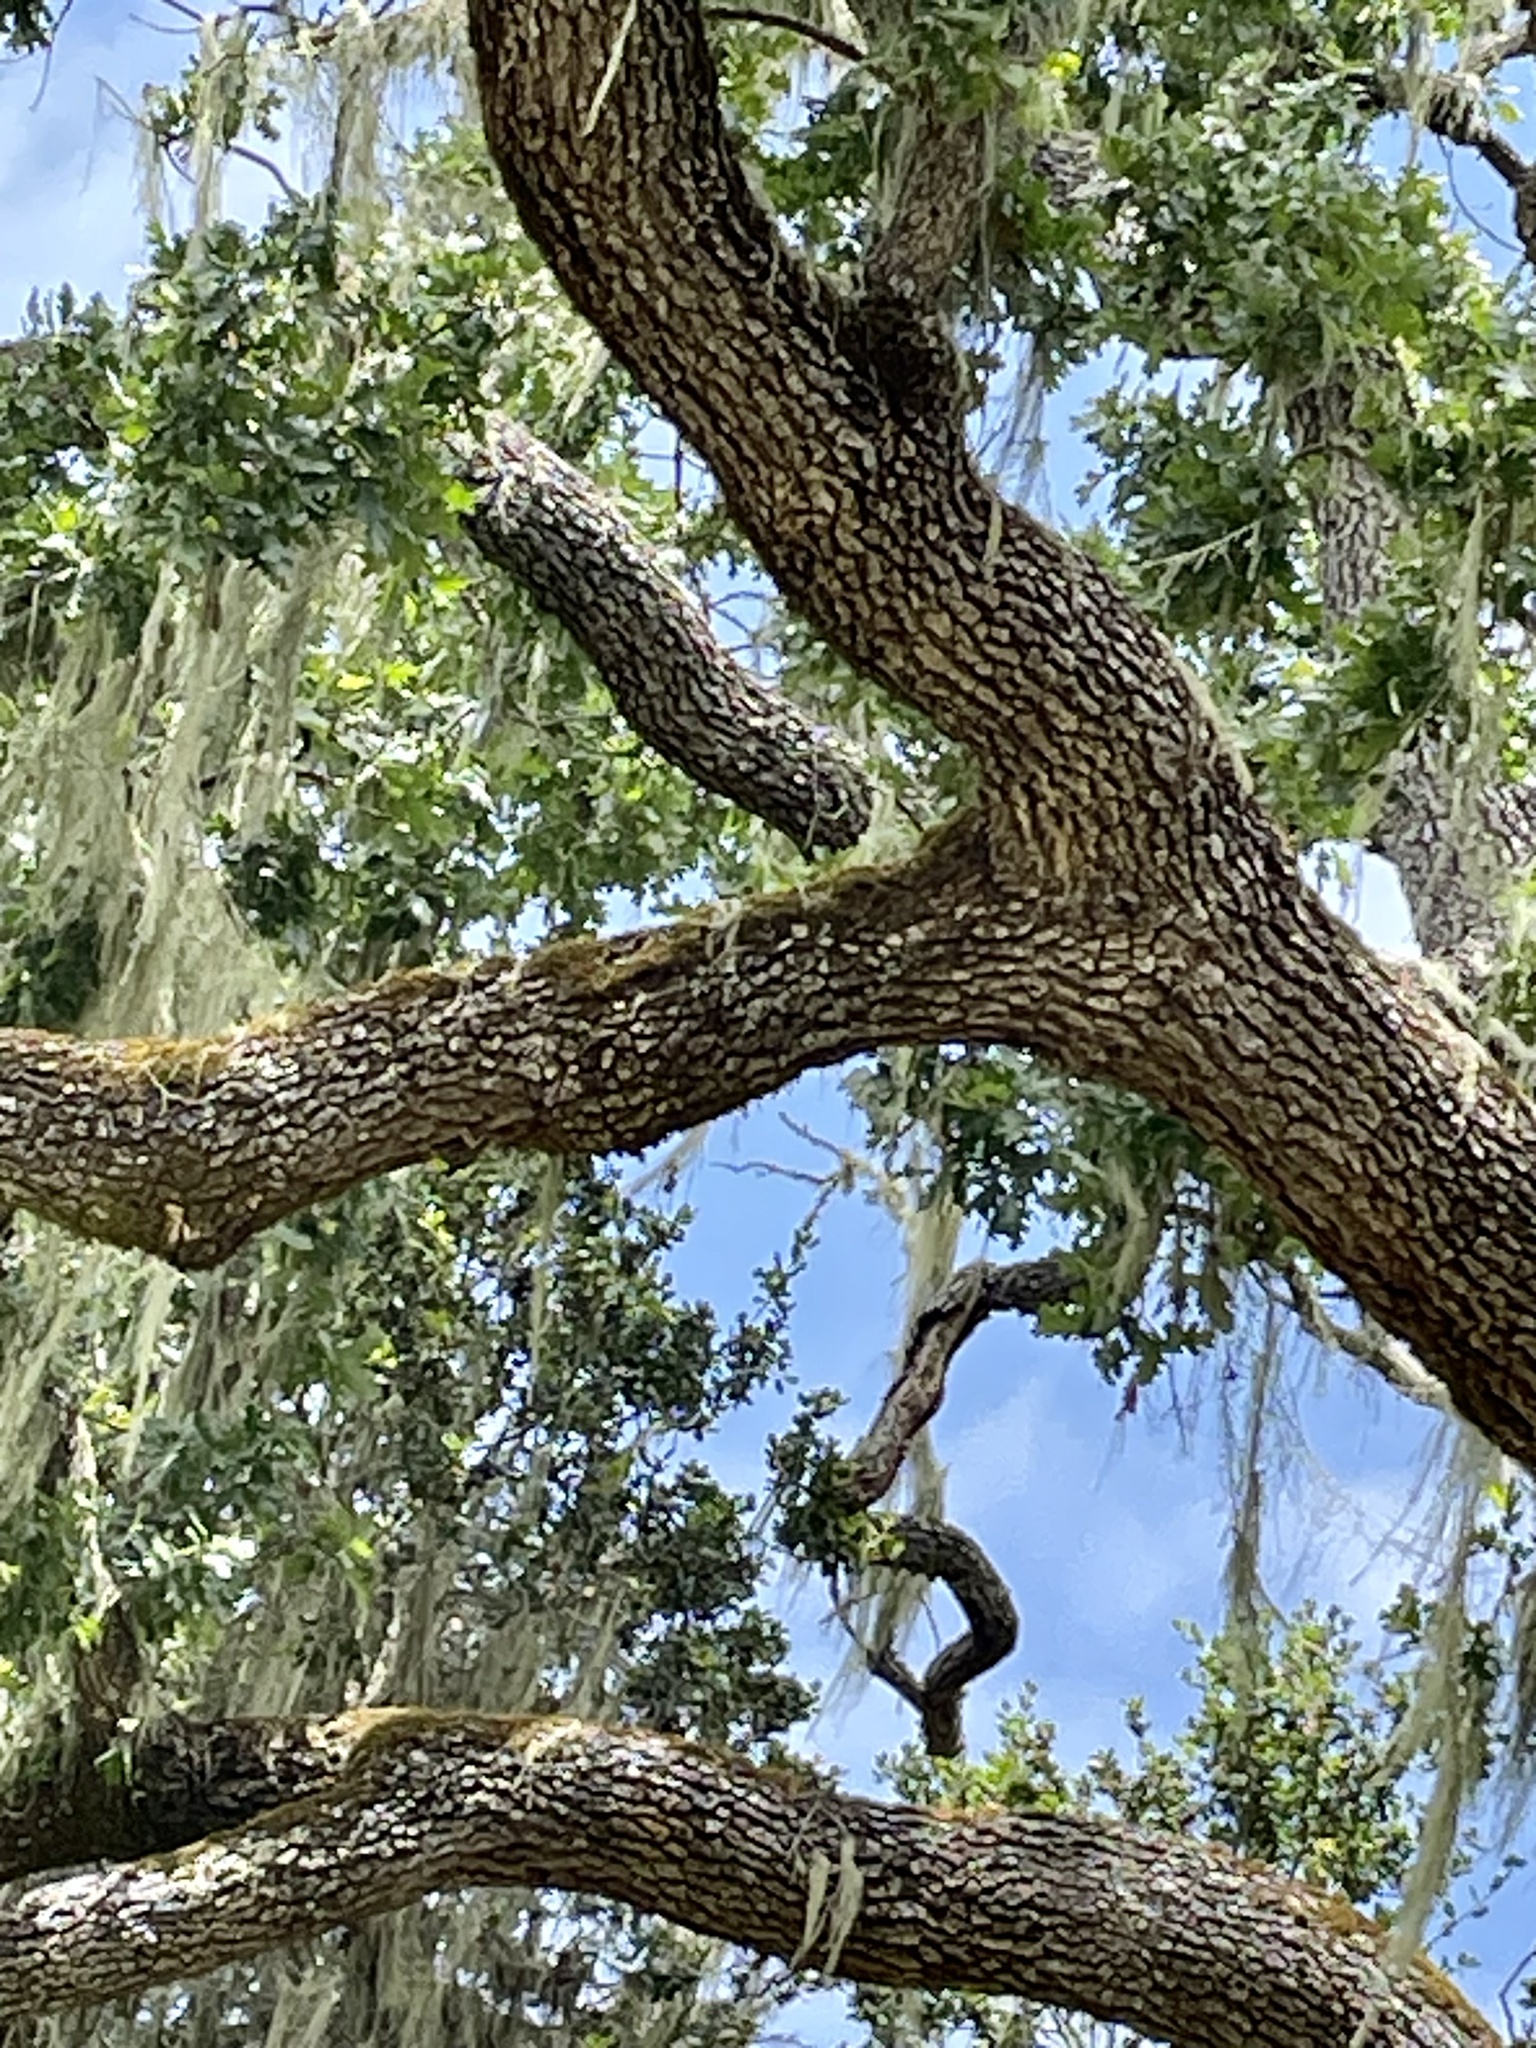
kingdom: Plantae
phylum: Tracheophyta
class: Magnoliopsida
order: Fagales
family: Fagaceae
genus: Quercus
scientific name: Quercus lobata
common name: Valley oak
